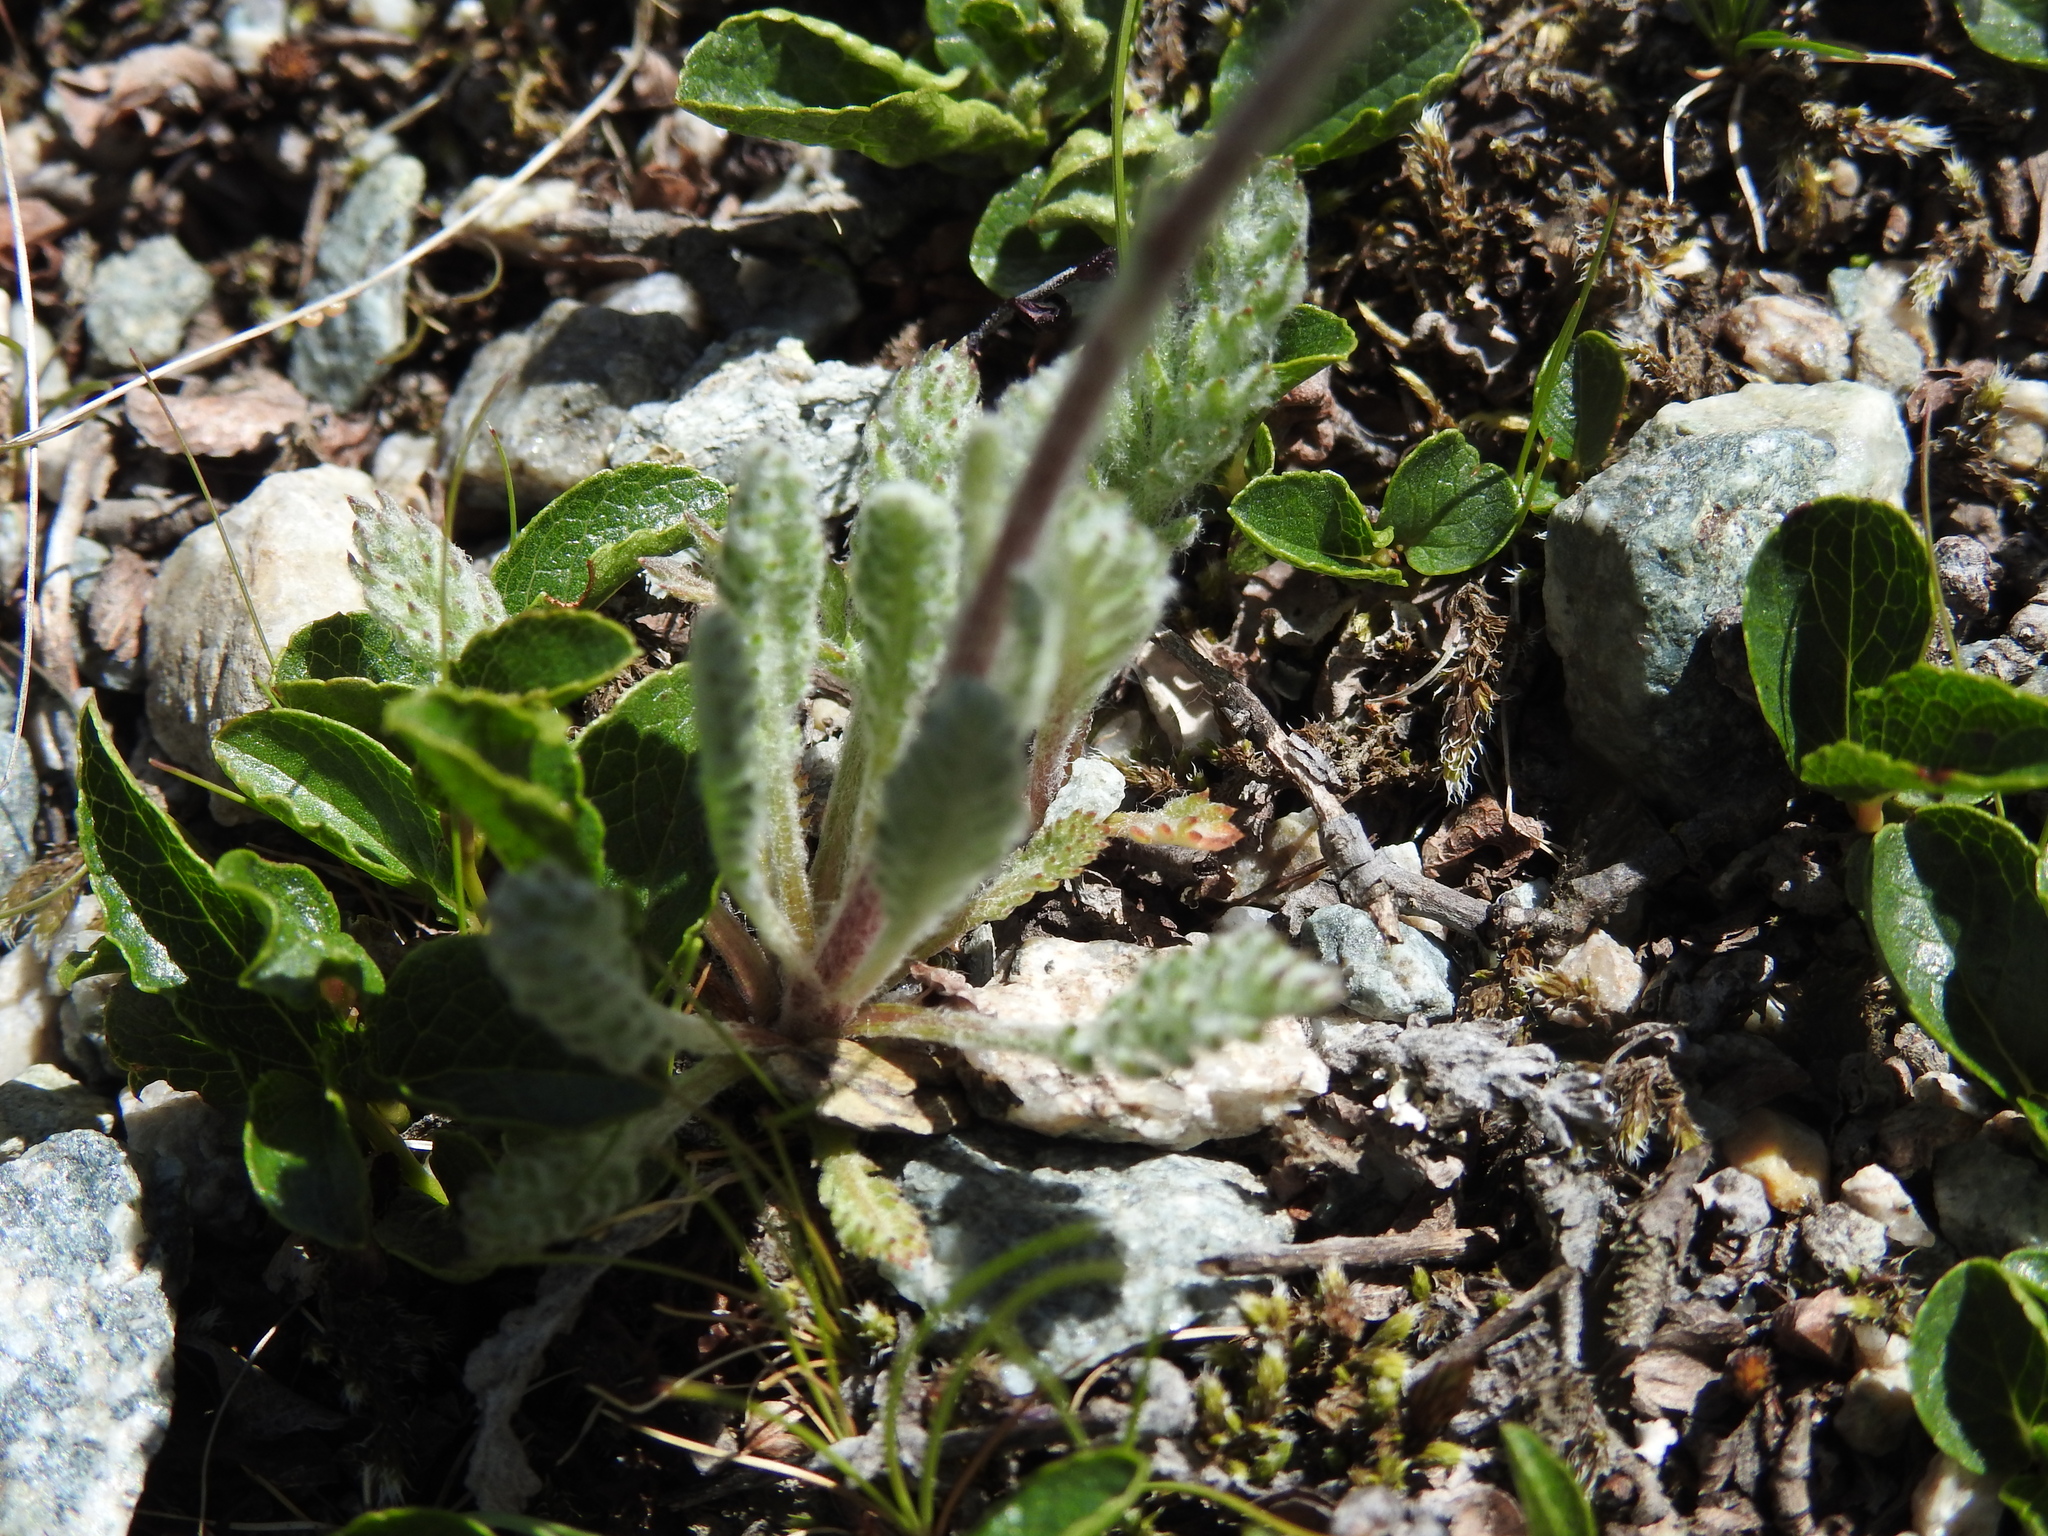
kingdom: Plantae
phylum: Tracheophyta
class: Magnoliopsida
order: Asterales
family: Asteraceae
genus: Achillea
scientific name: Achillea nana
